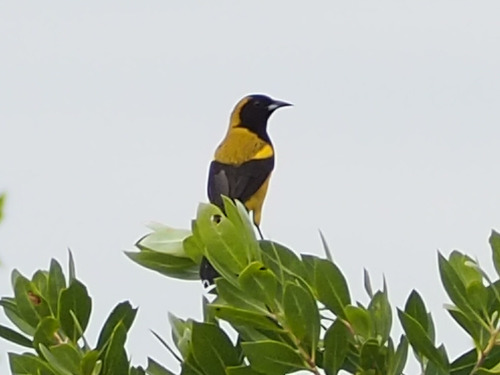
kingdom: Animalia
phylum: Chordata
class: Aves
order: Passeriformes
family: Icteridae
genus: Icterus
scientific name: Icterus prosthemelas
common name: Black-cowled oriole
